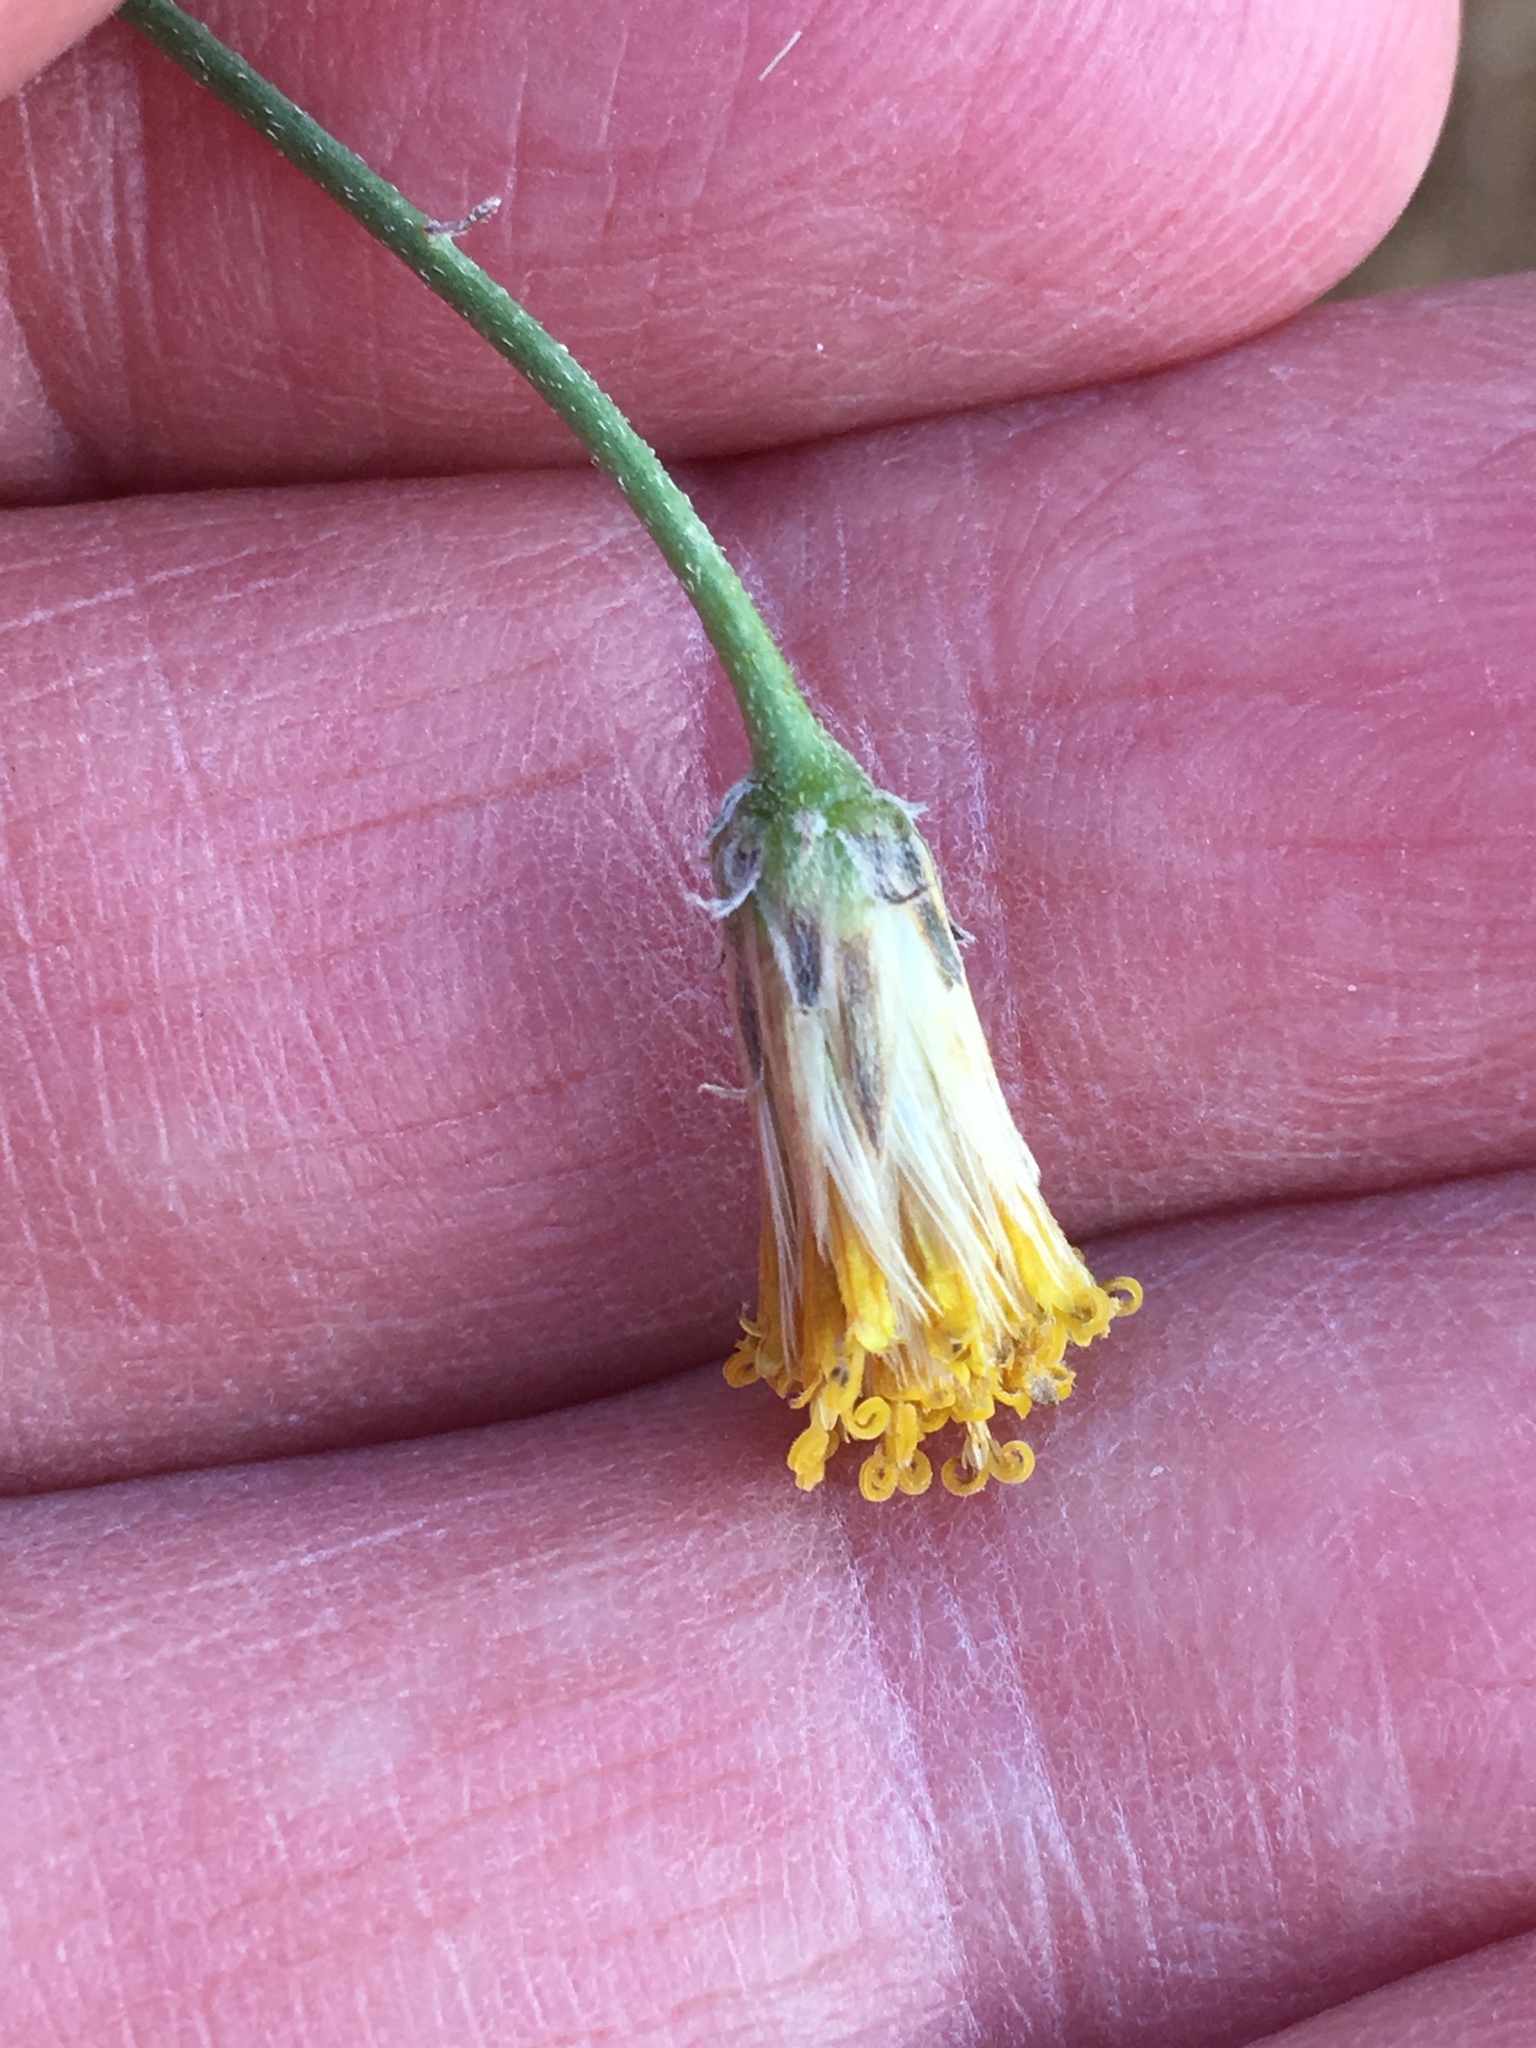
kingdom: Plantae
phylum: Tracheophyta
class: Magnoliopsida
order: Asterales
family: Asteraceae
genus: Bebbia
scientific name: Bebbia juncea
